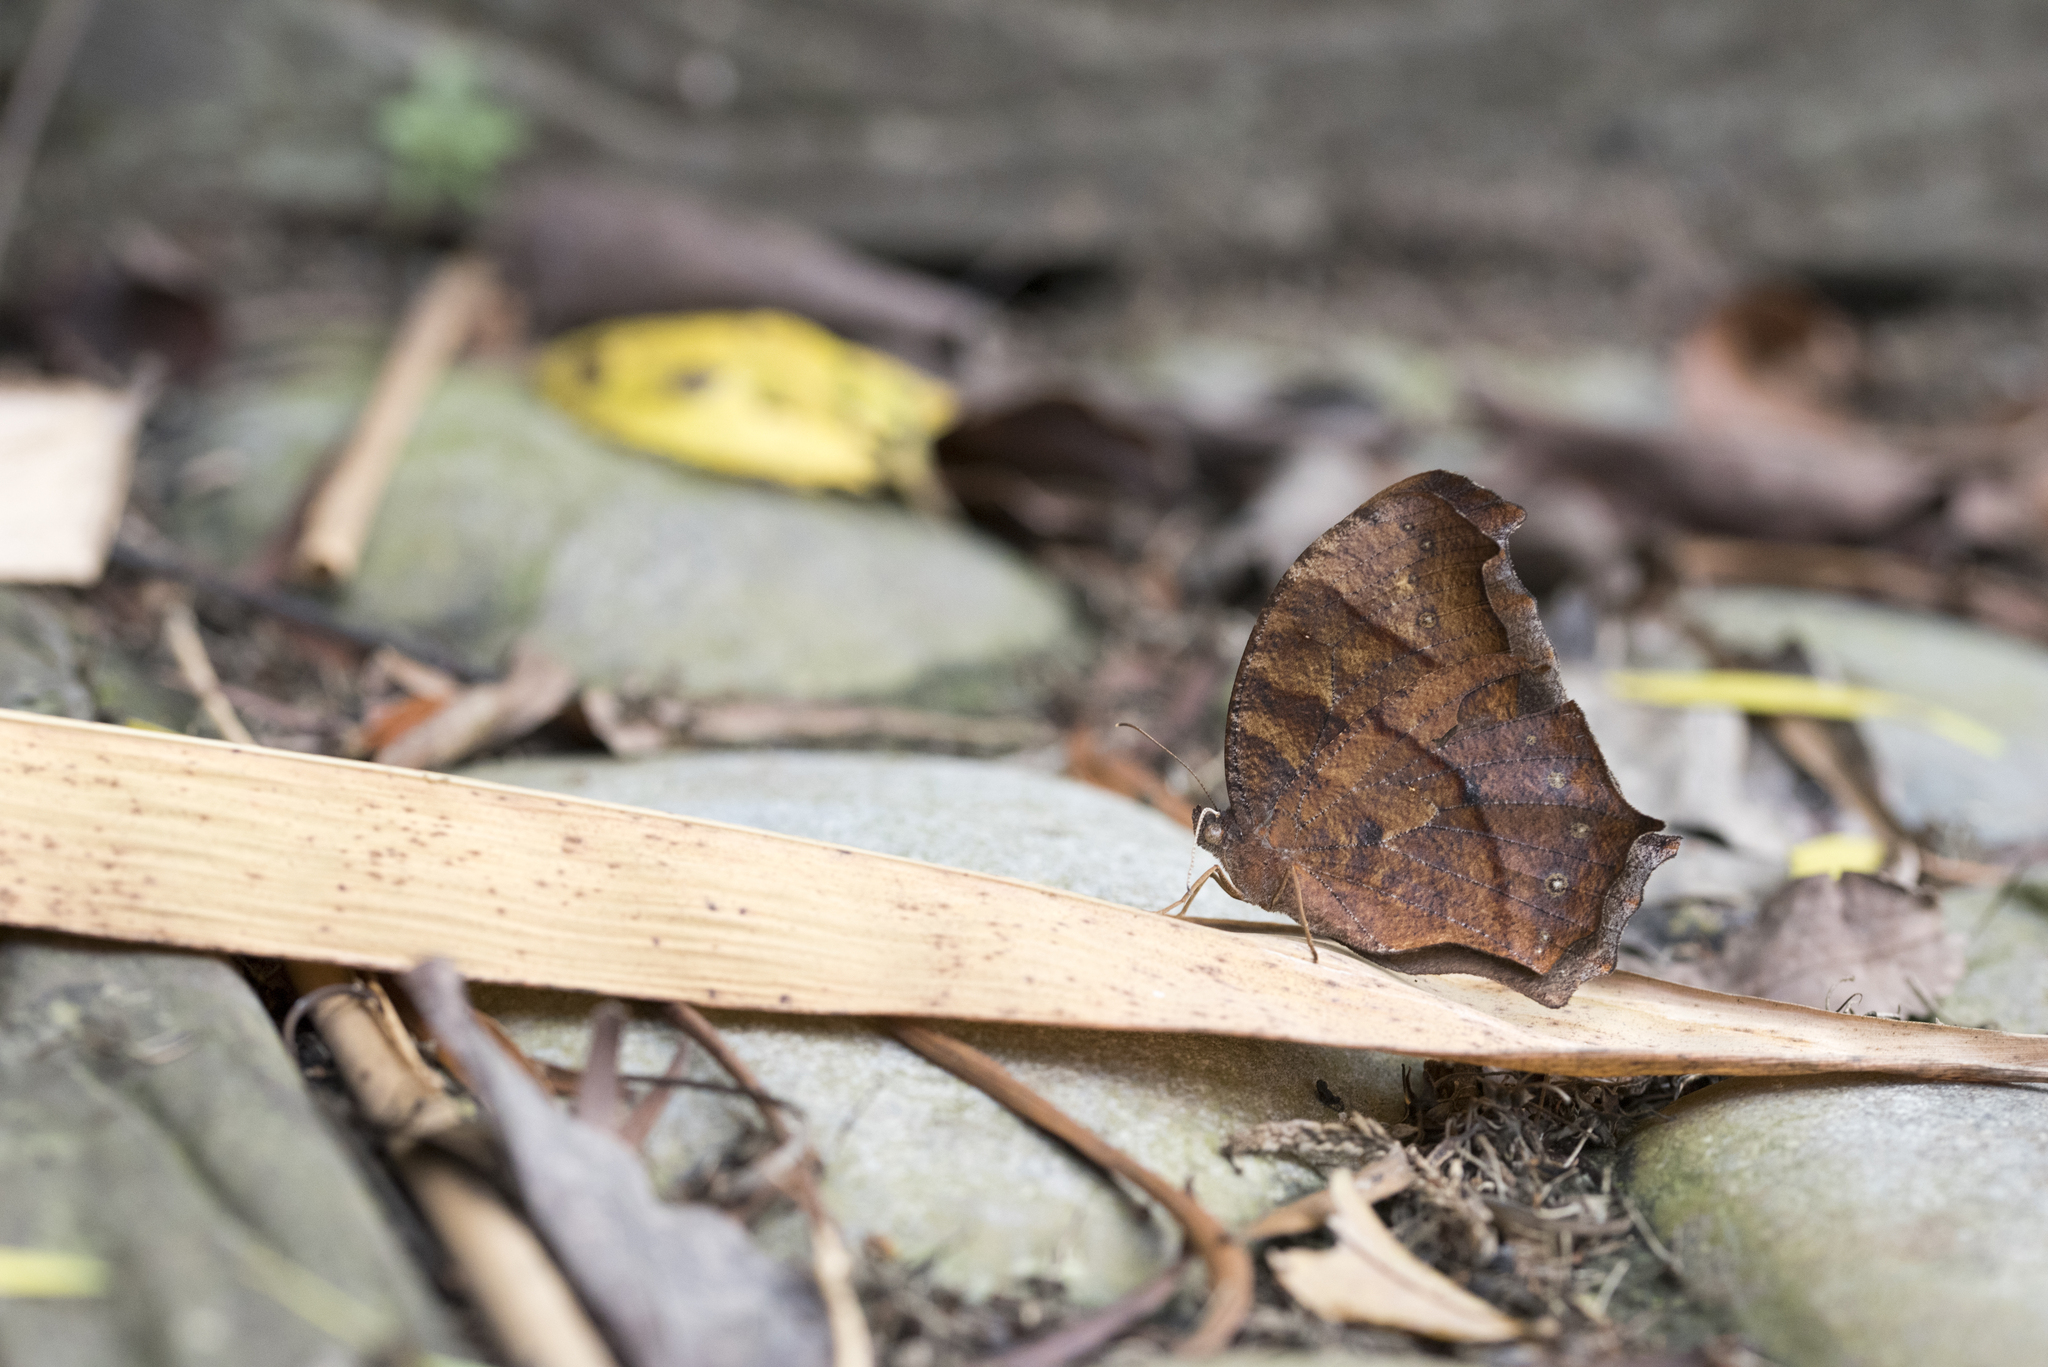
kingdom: Animalia
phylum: Arthropoda
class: Insecta
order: Lepidoptera
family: Nymphalidae
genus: Melanitis
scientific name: Melanitis phedima
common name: Dark evening brown
